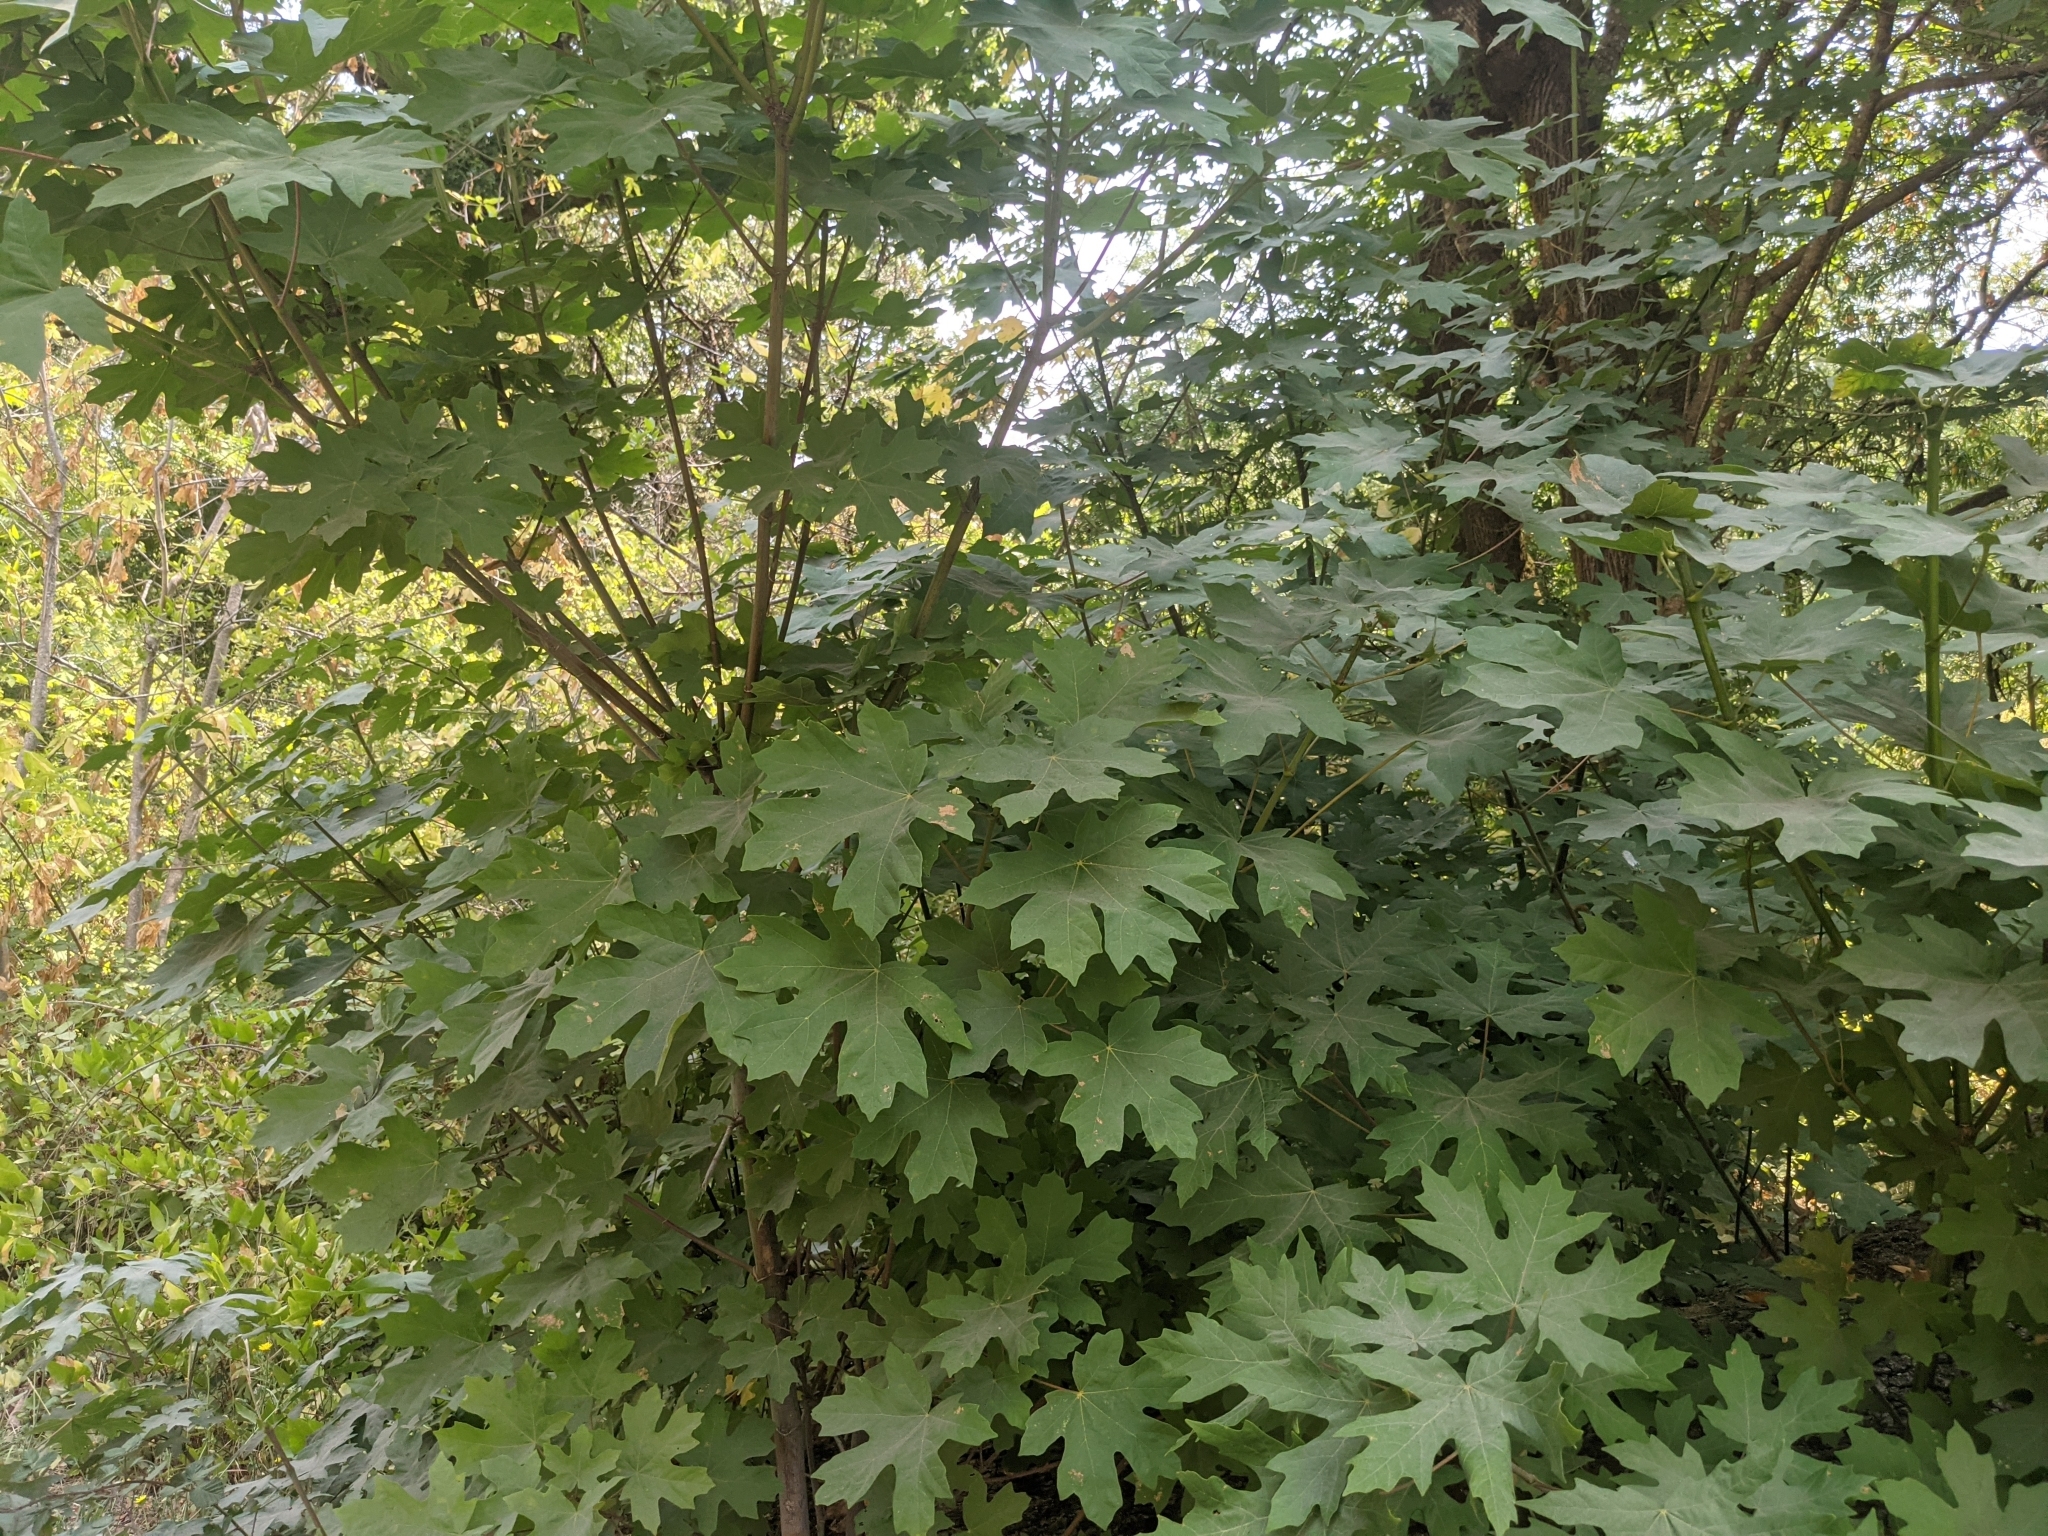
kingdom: Plantae
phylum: Tracheophyta
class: Magnoliopsida
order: Sapindales
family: Sapindaceae
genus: Acer
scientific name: Acer macrophyllum
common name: Oregon maple
